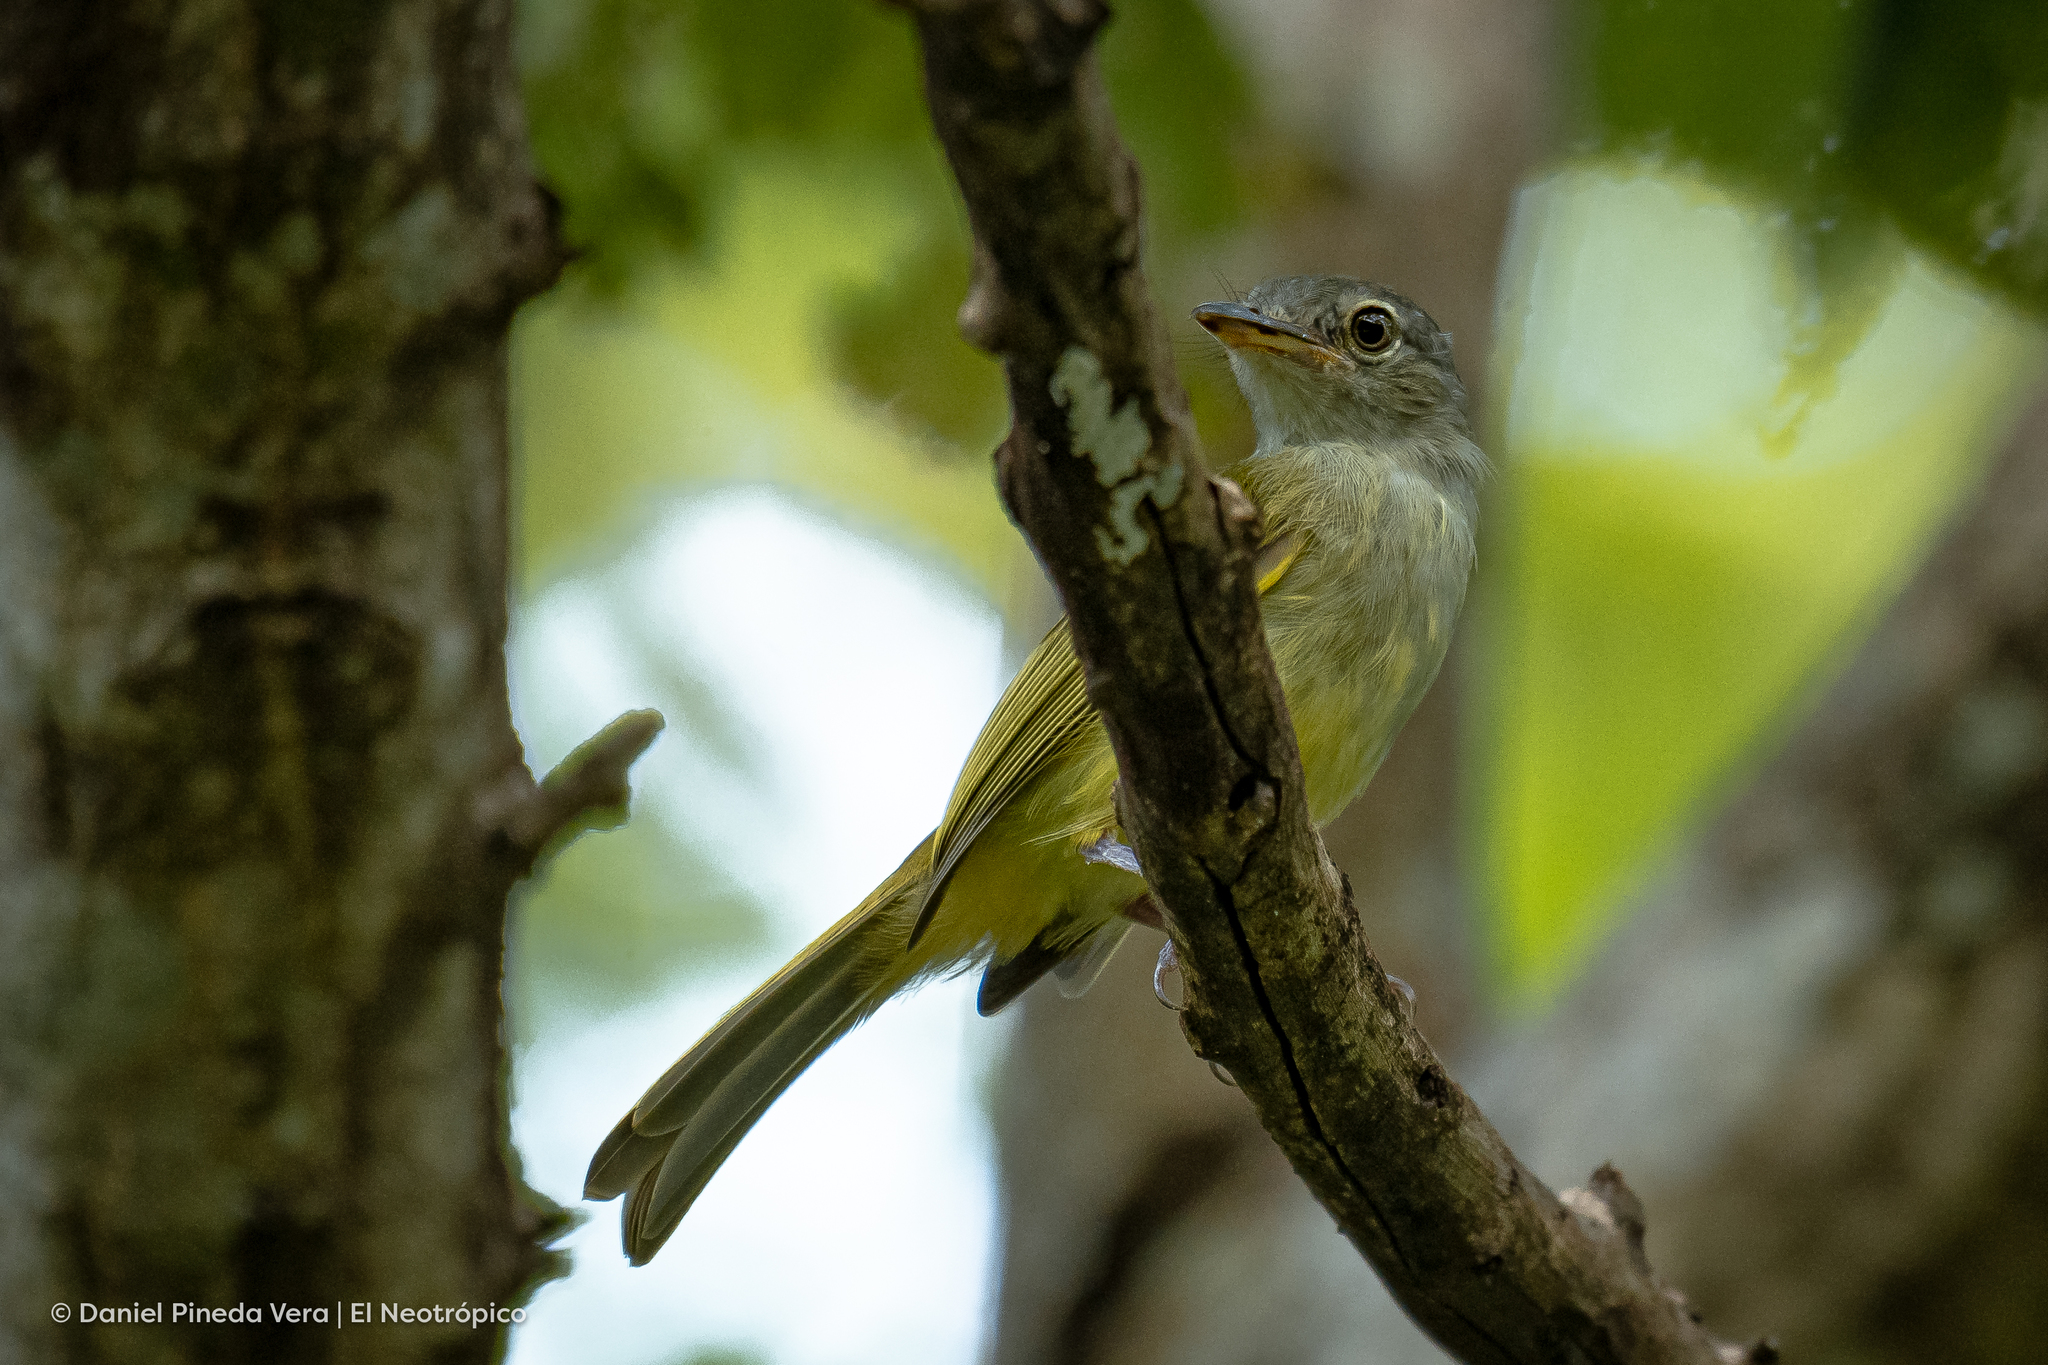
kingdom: Animalia
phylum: Chordata
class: Aves
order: Passeriformes
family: Tyrannidae
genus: Tolmomyias
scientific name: Tolmomyias sulphurescens
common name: Yellow-olive flycatcher
